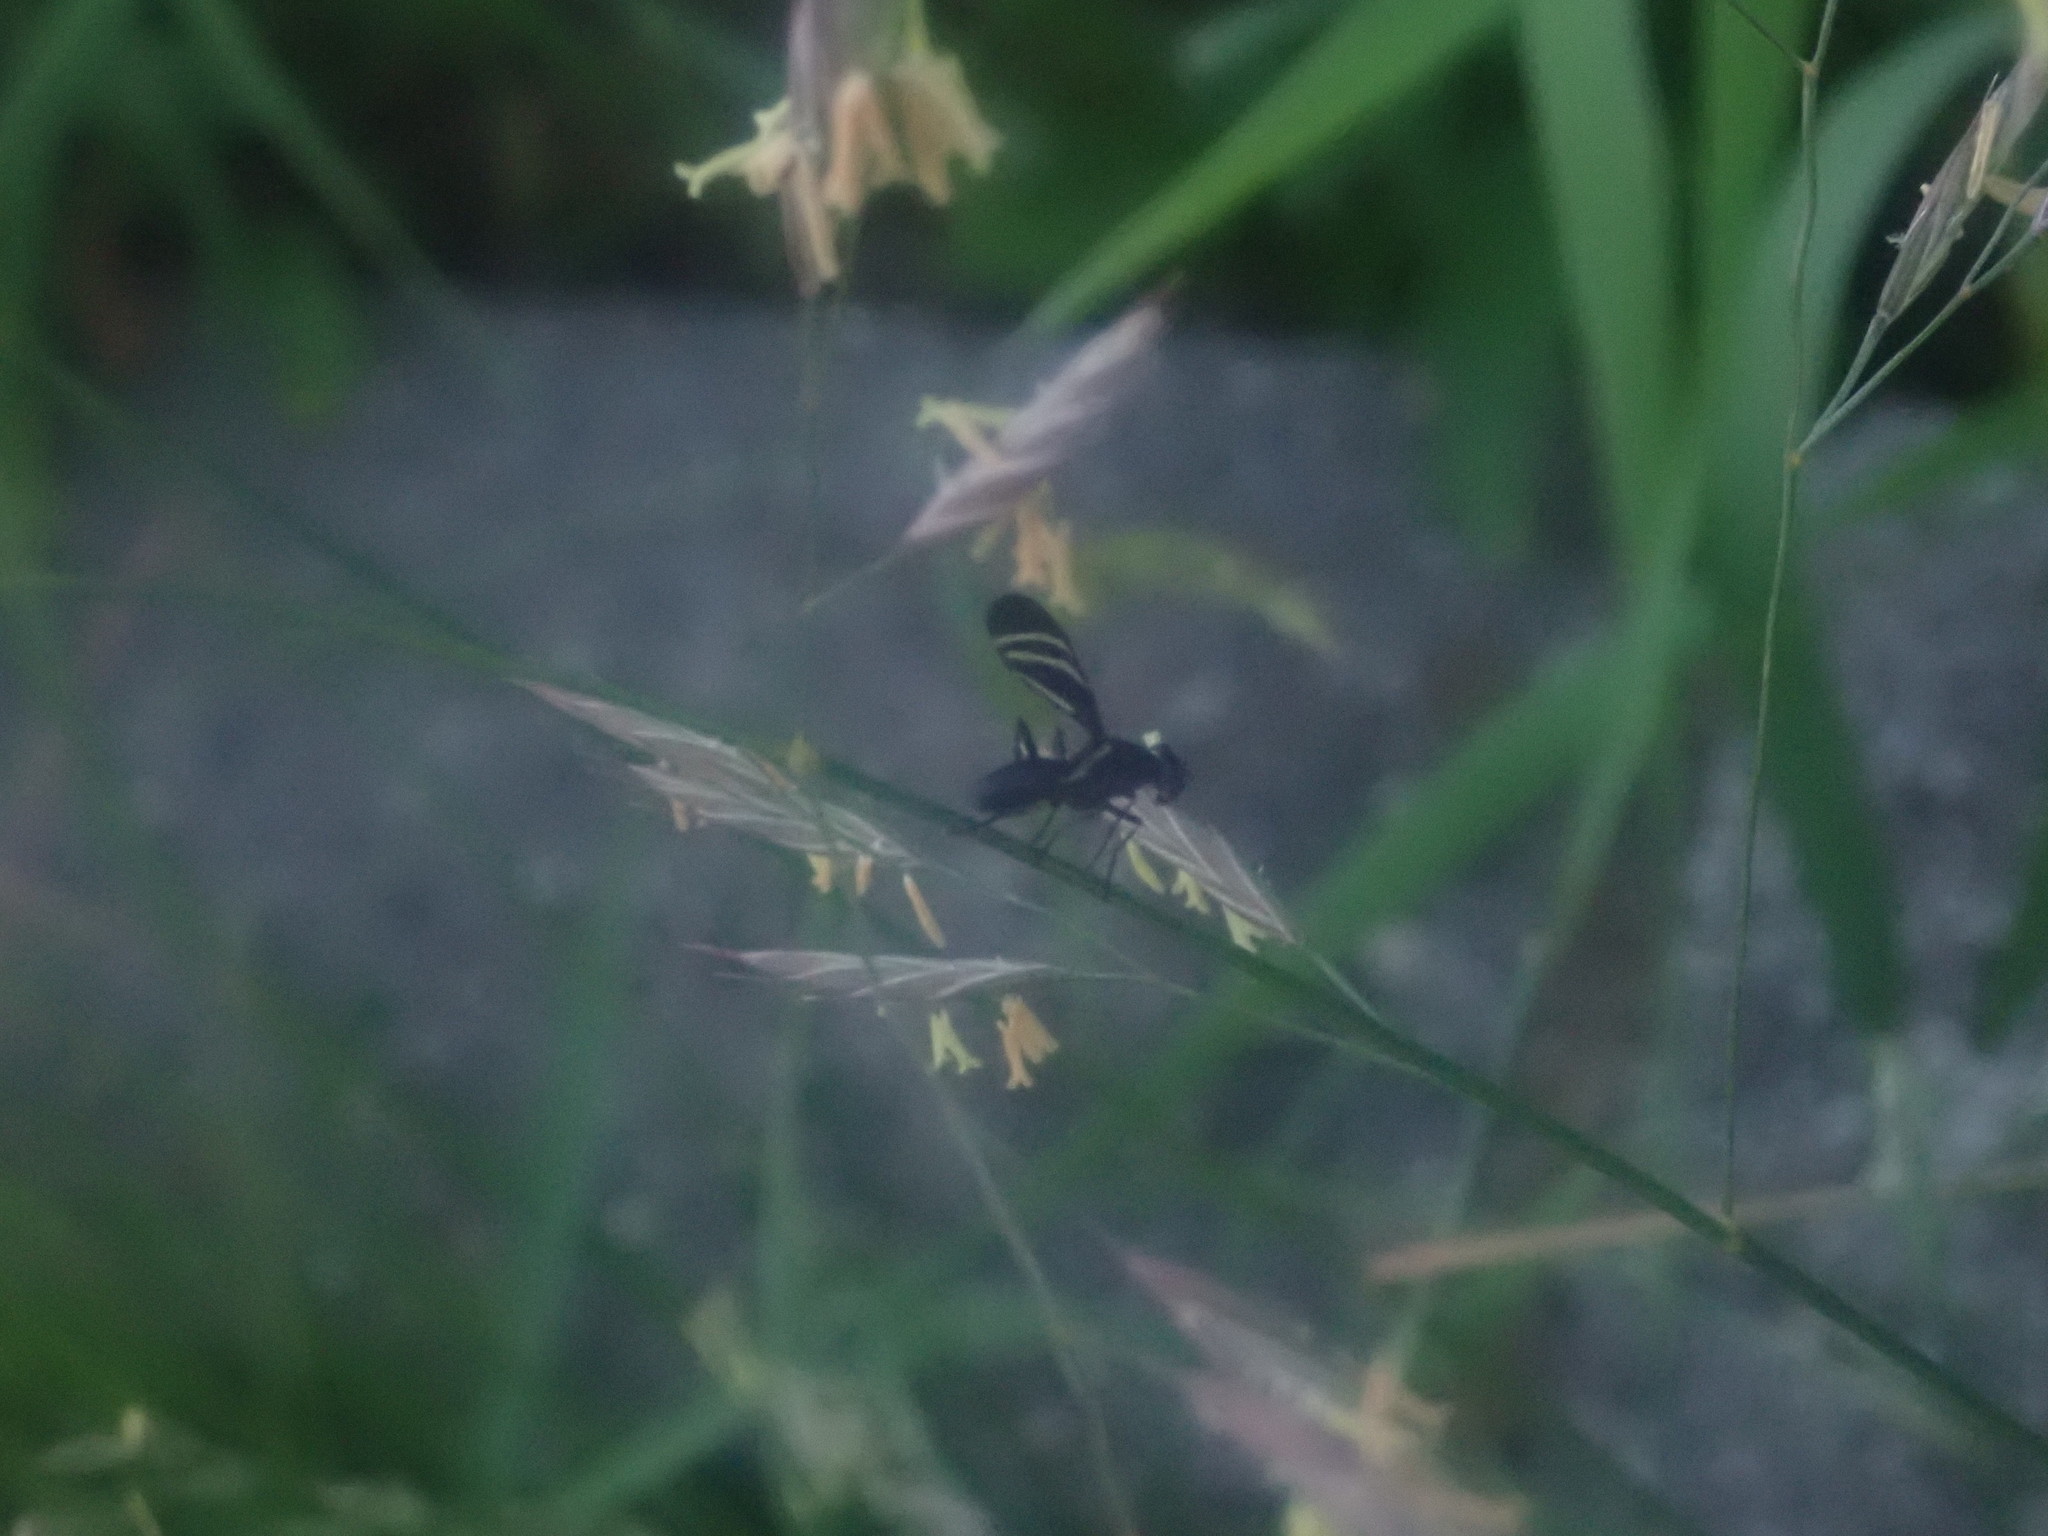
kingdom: Animalia
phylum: Arthropoda
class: Insecta
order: Diptera
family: Ulidiidae
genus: Tritoxa
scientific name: Tritoxa flexa
